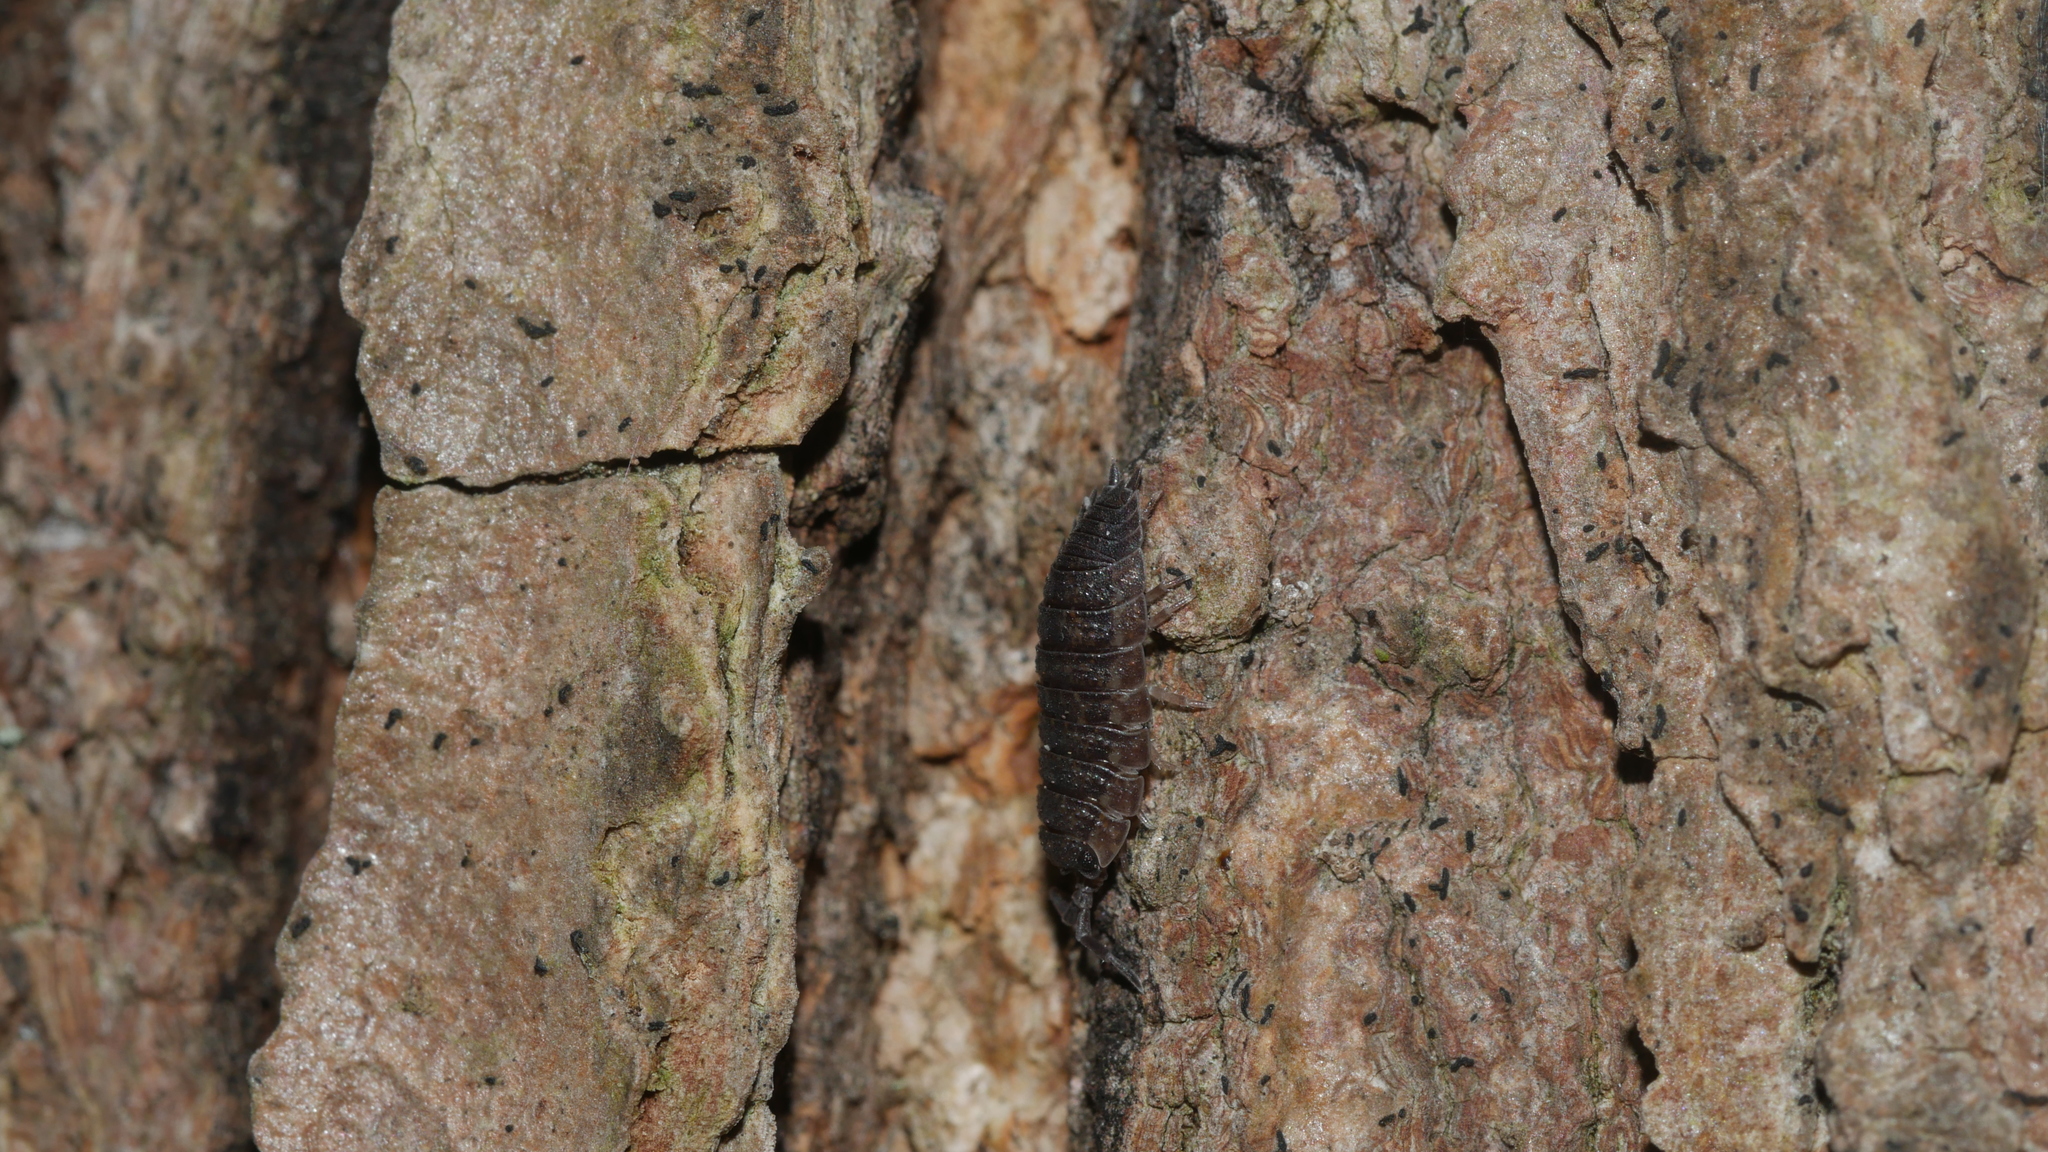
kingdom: Animalia
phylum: Arthropoda
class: Malacostraca
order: Isopoda
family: Porcellionidae
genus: Porcellio
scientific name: Porcellio scaber
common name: Common rough woodlouse
